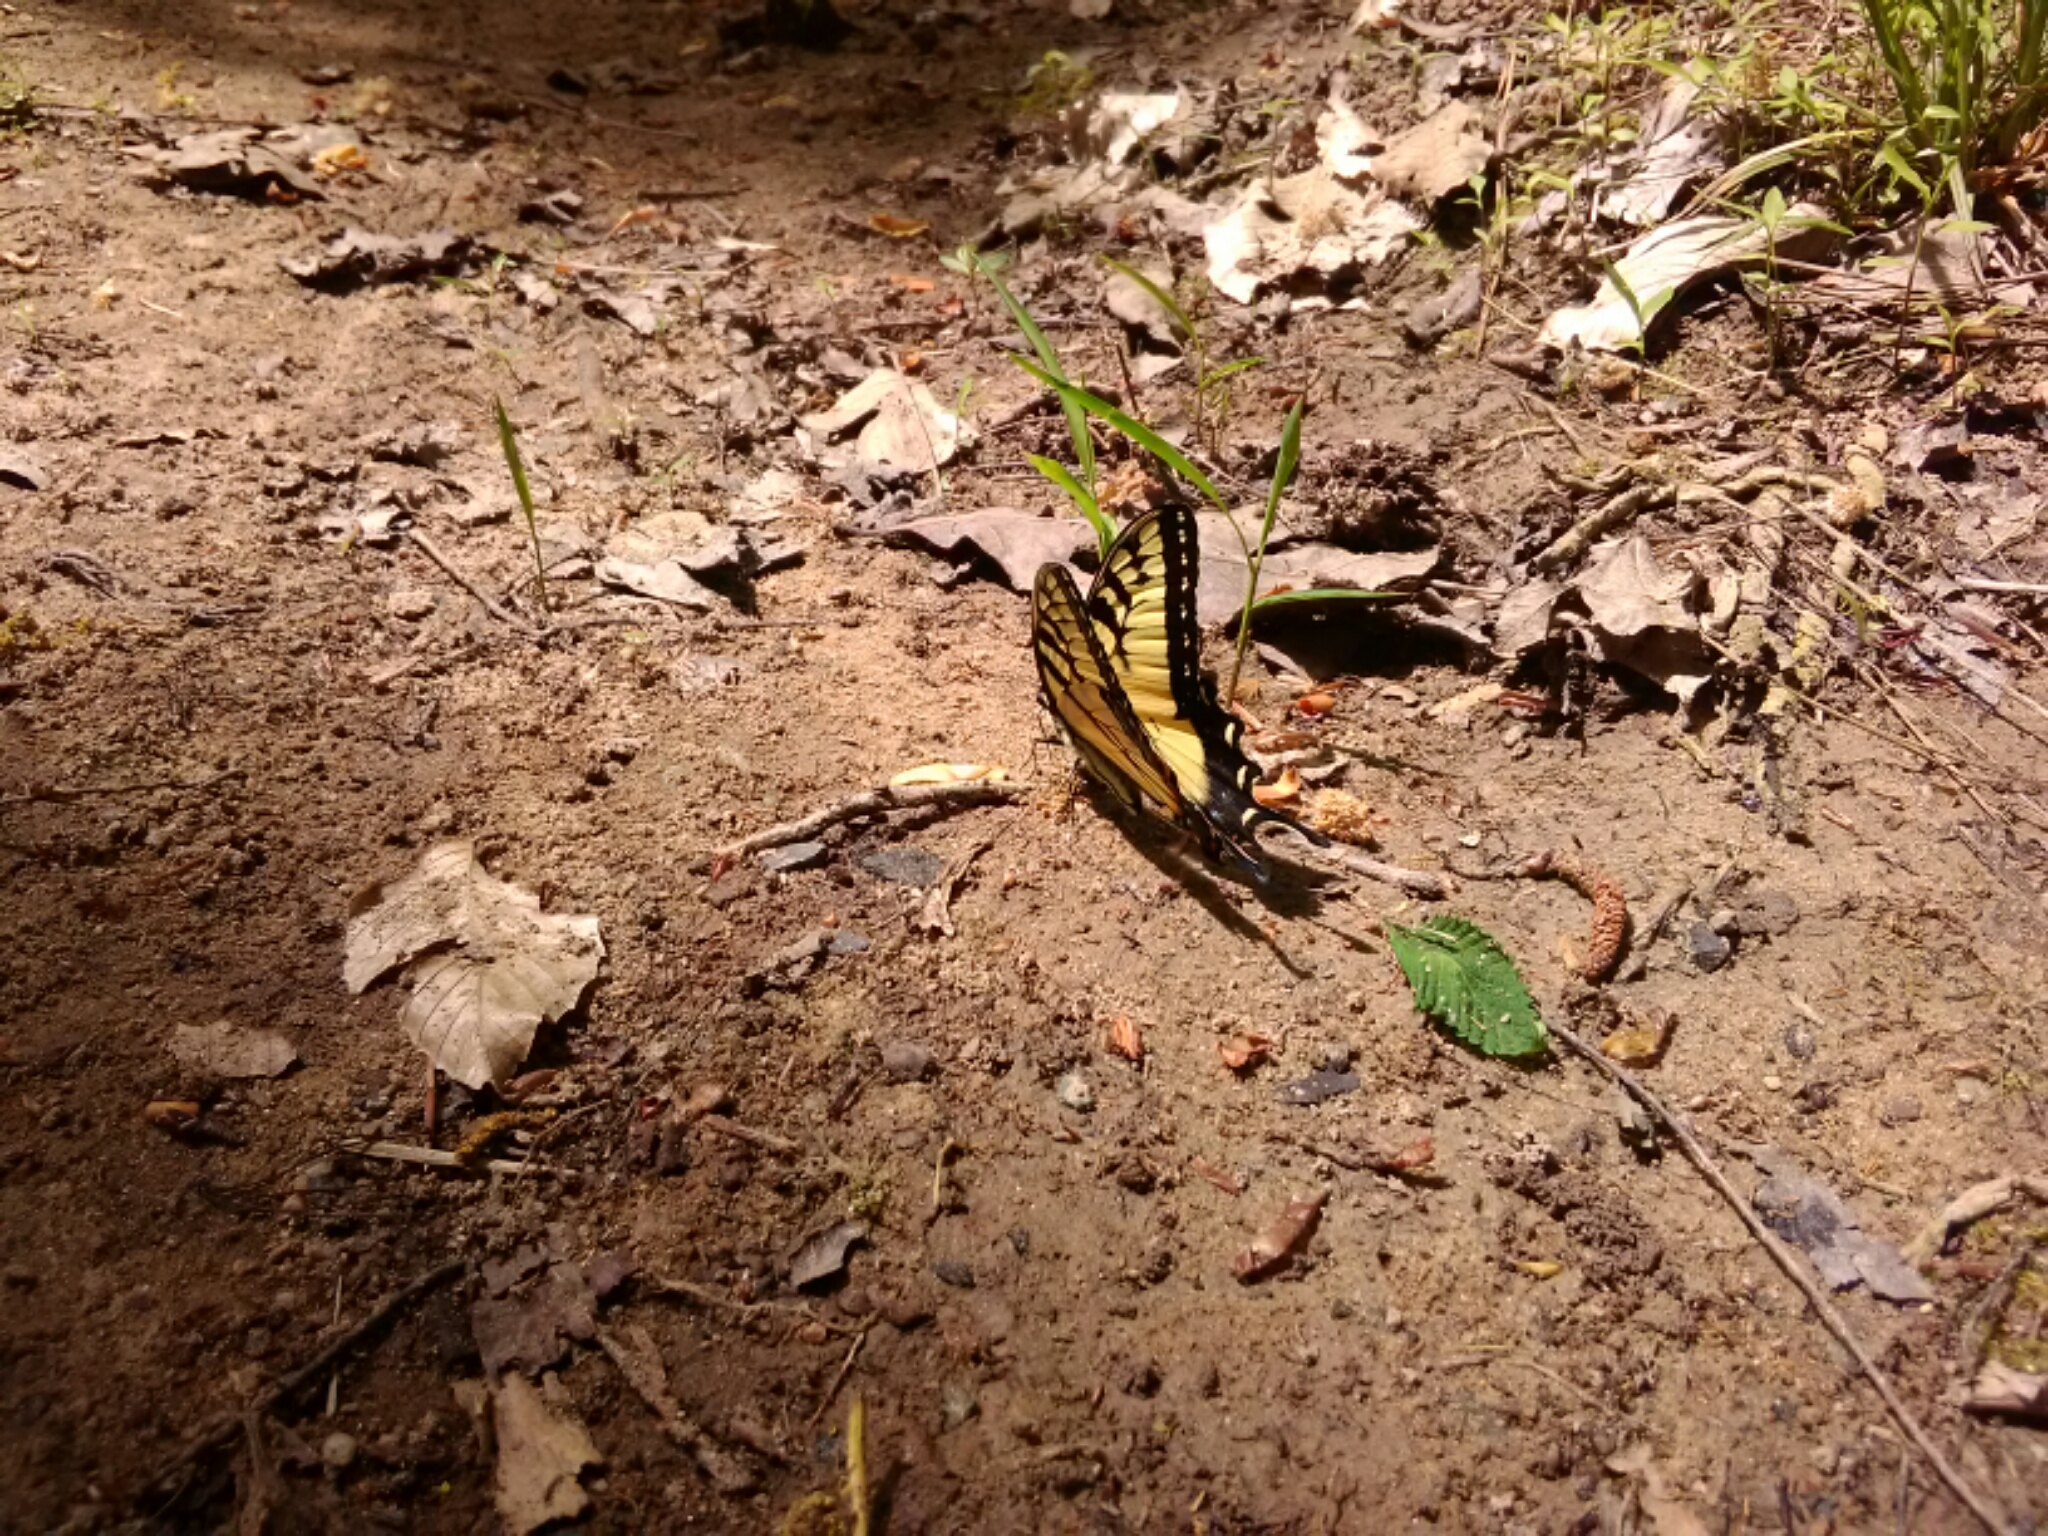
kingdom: Animalia
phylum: Arthropoda
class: Insecta
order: Lepidoptera
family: Papilionidae
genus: Papilio
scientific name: Papilio glaucus
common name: Tiger swallowtail
